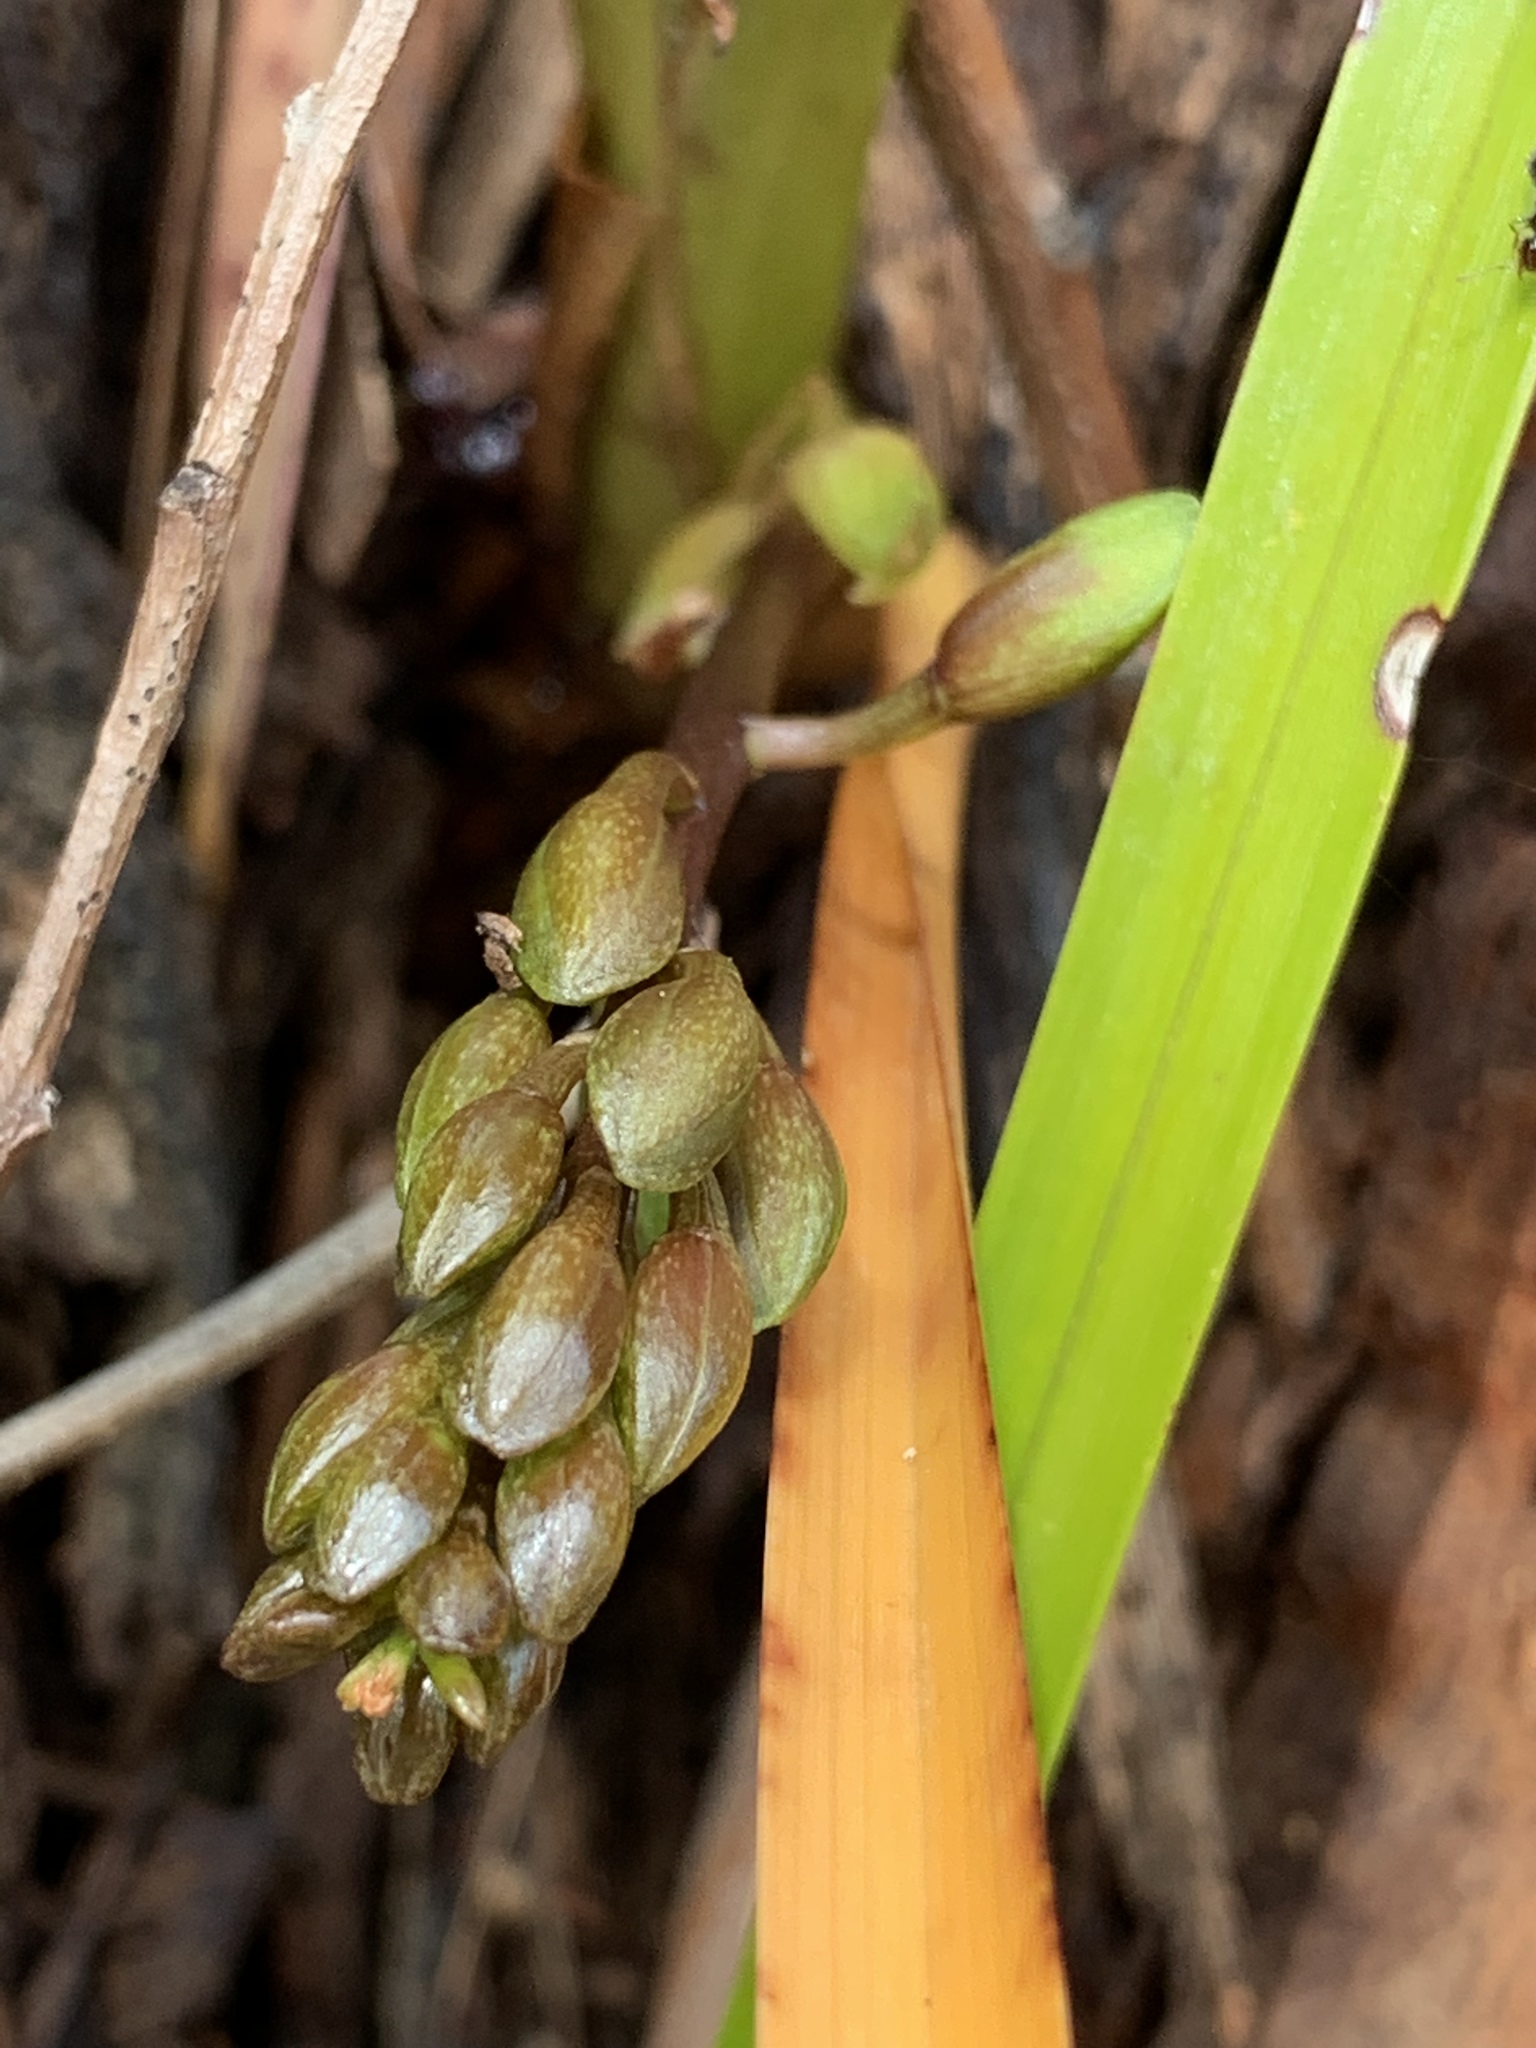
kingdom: Plantae
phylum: Tracheophyta
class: Liliopsida
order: Asparagales
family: Orchidaceae
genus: Cymbidium
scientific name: Cymbidium suave
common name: Snake orchid
